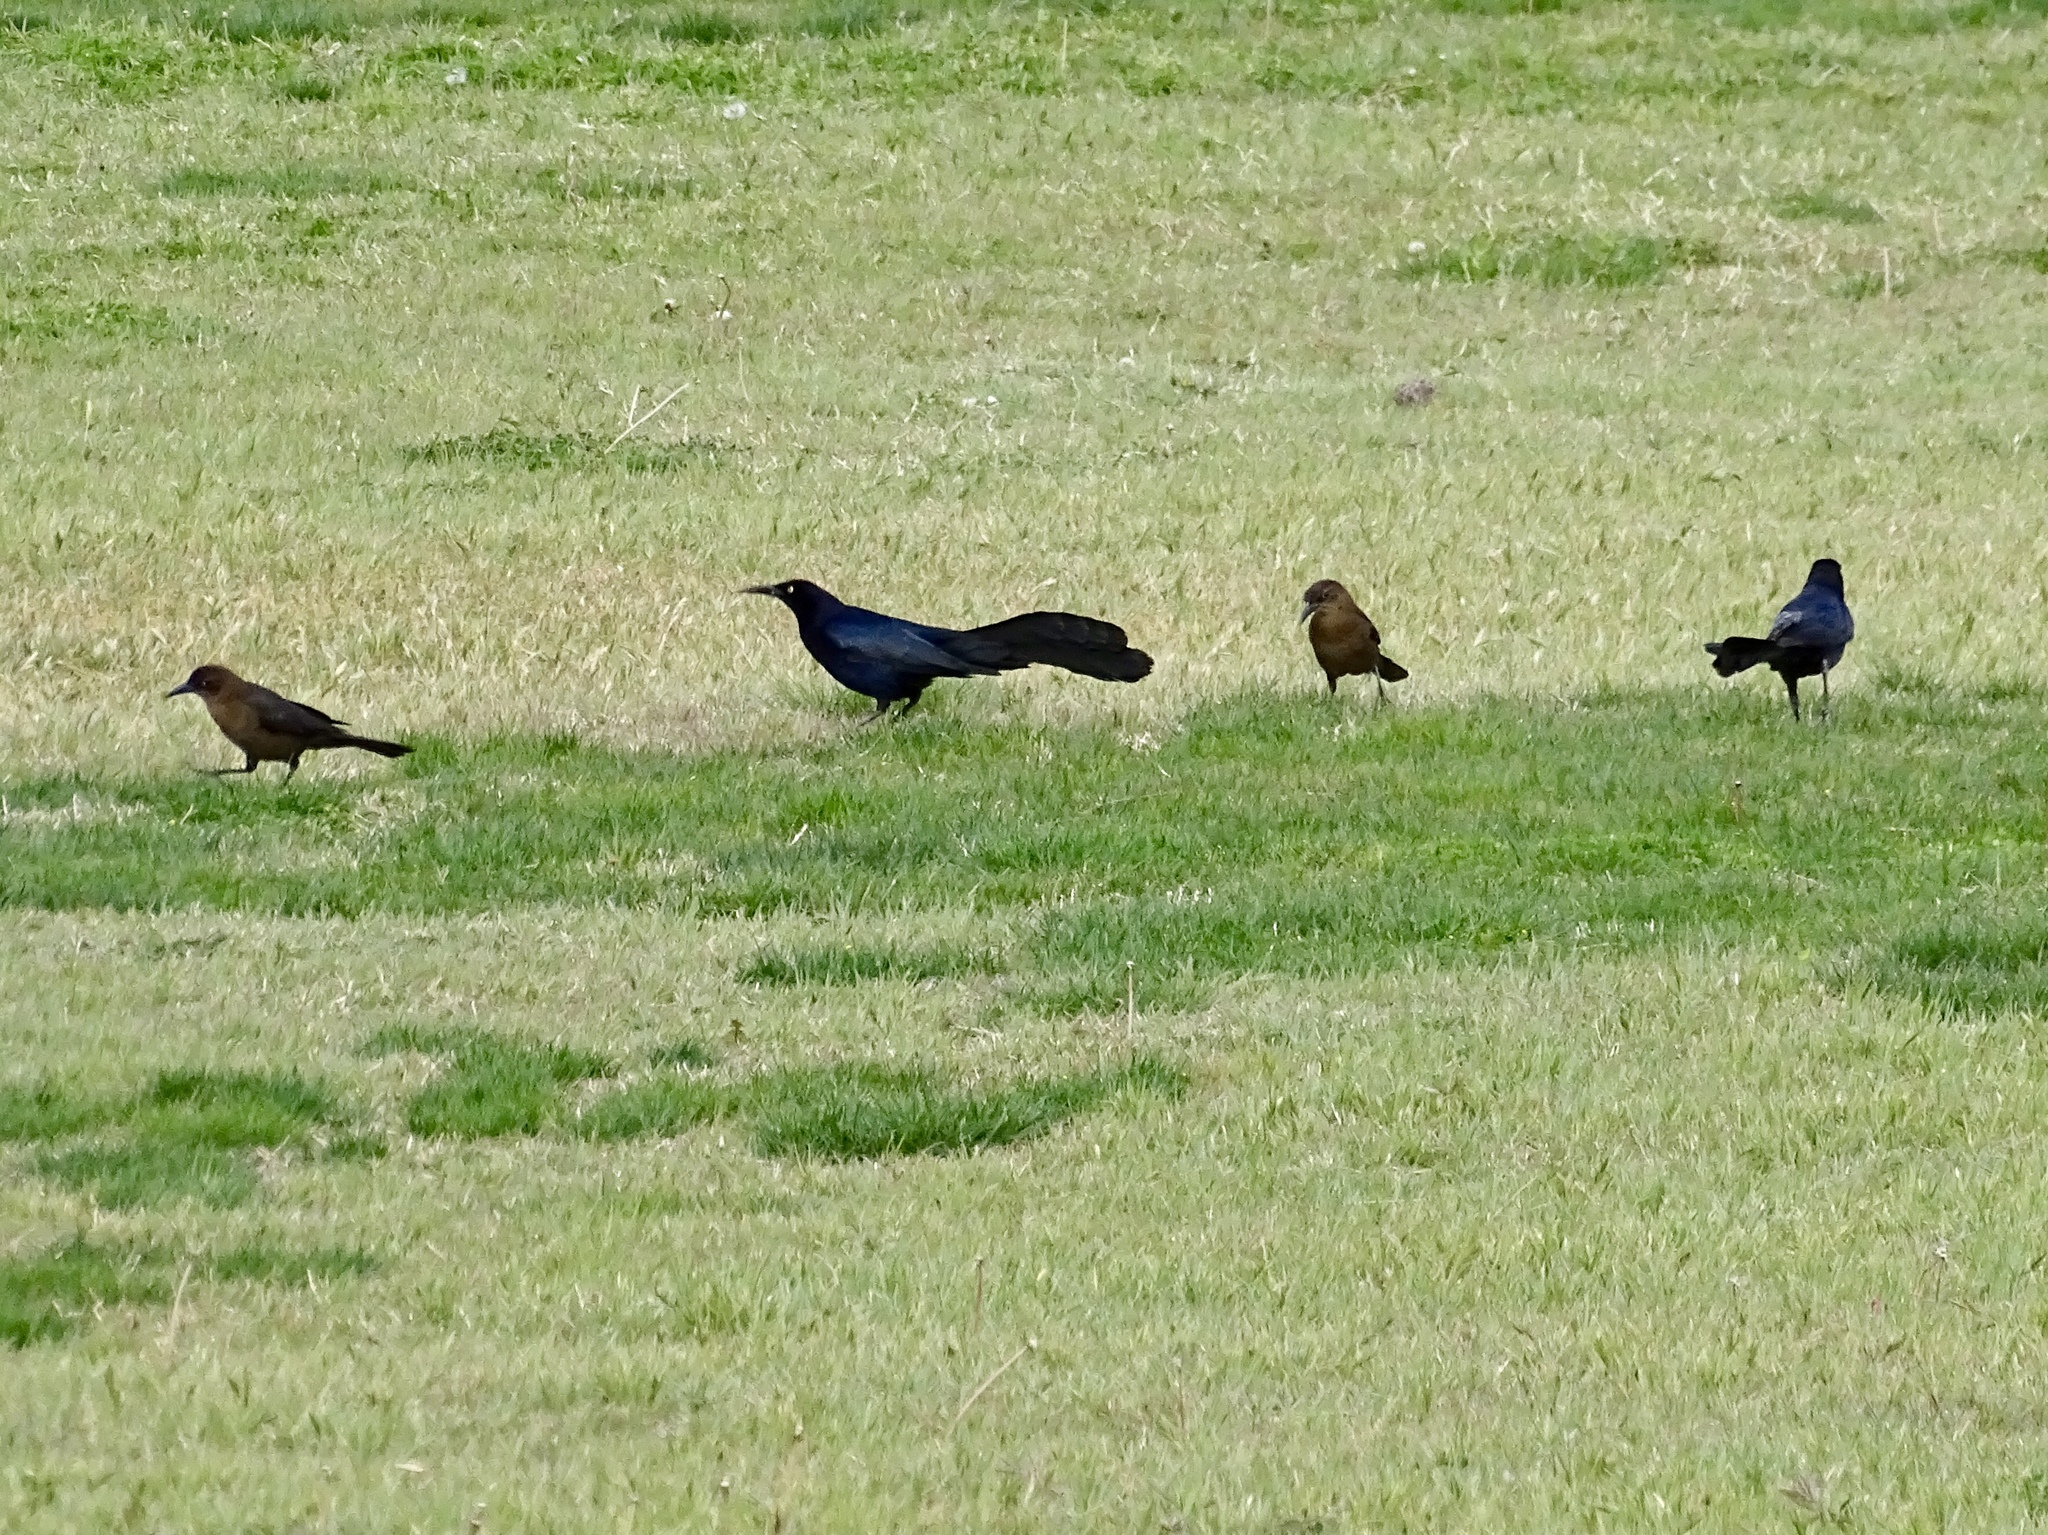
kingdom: Animalia
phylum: Chordata
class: Aves
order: Passeriformes
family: Icteridae
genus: Quiscalus
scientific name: Quiscalus mexicanus
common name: Great-tailed grackle
